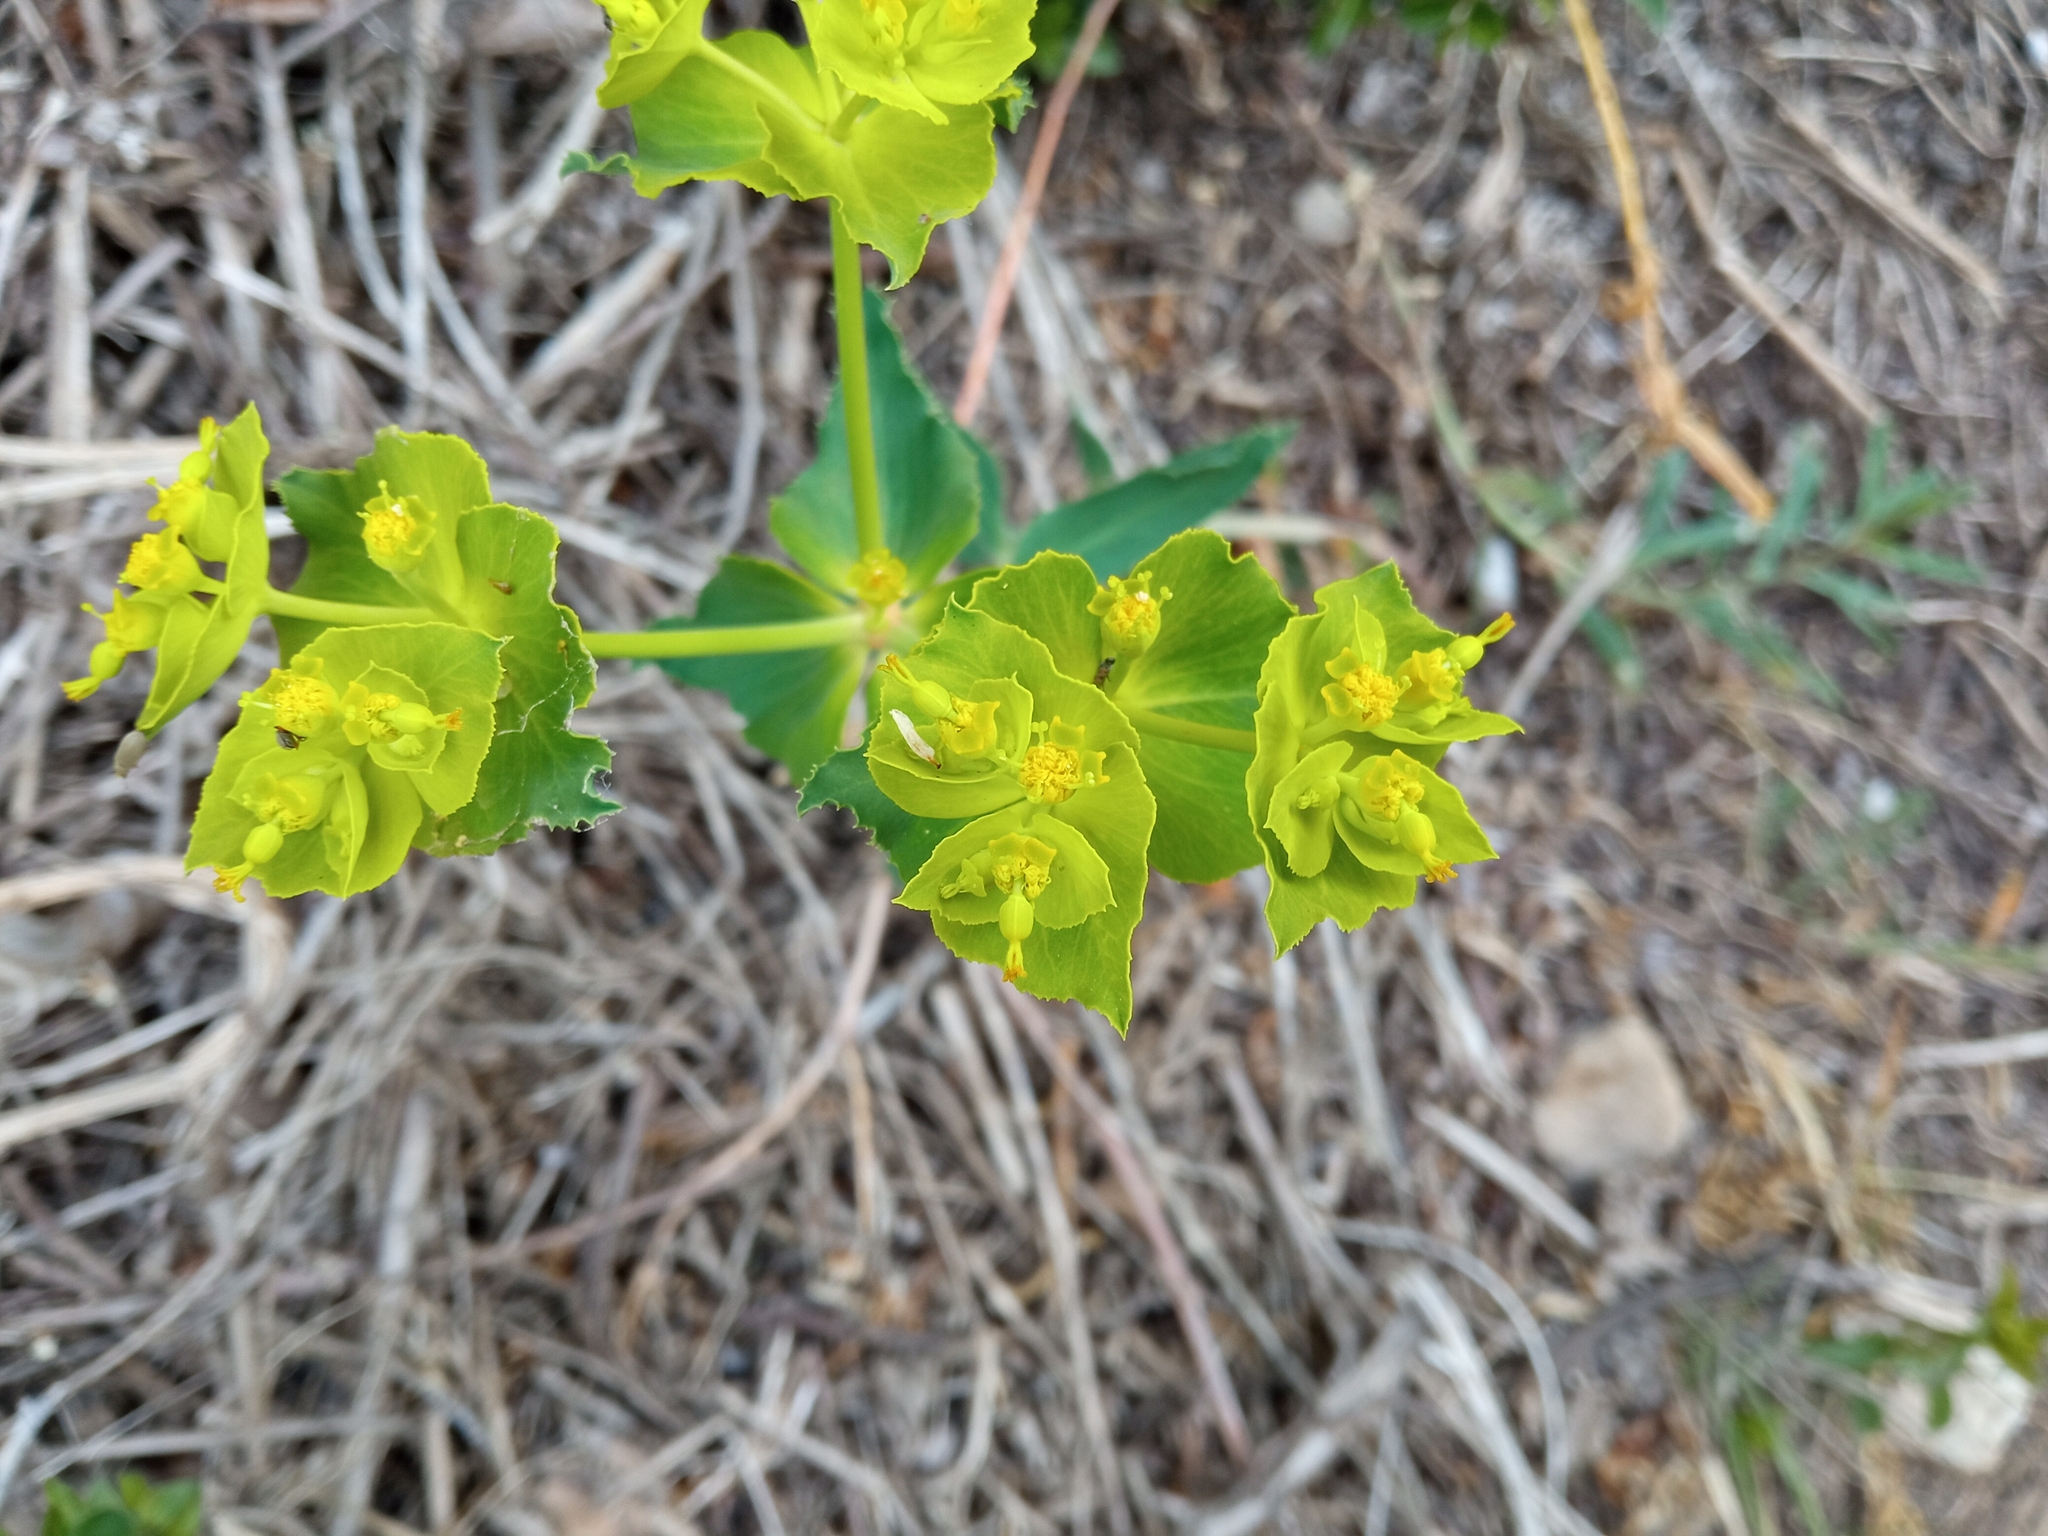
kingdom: Plantae
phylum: Tracheophyta
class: Magnoliopsida
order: Malpighiales
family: Euphorbiaceae
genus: Euphorbia
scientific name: Euphorbia serrata
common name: Serrate spurge
